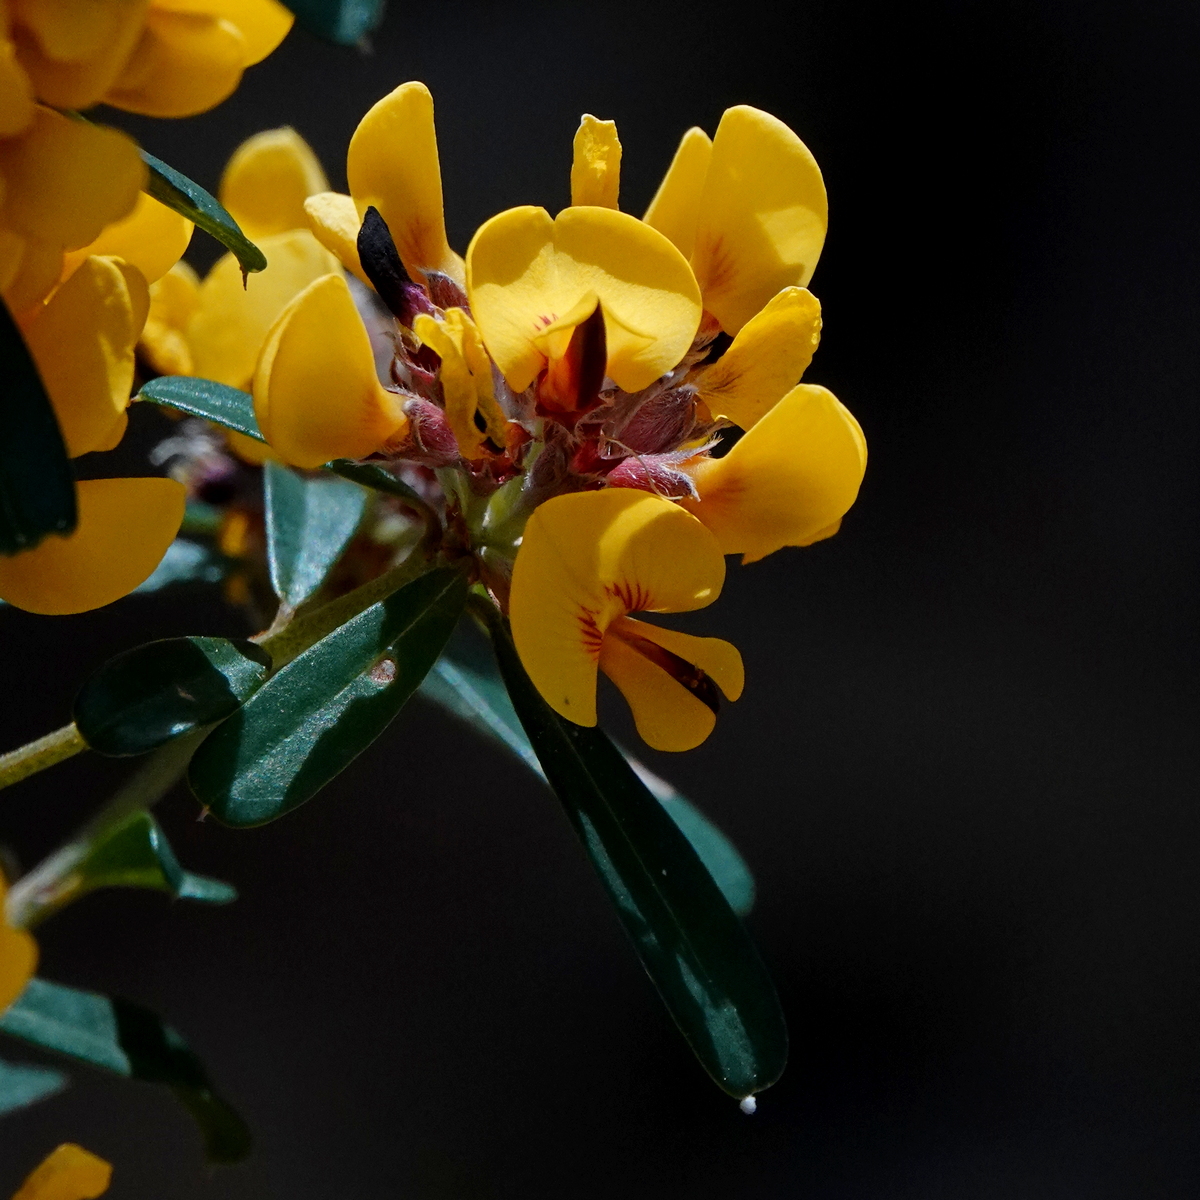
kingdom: Plantae
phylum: Tracheophyta
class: Magnoliopsida
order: Fabales
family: Fabaceae
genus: Pultenaea
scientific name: Pultenaea daphnoides
